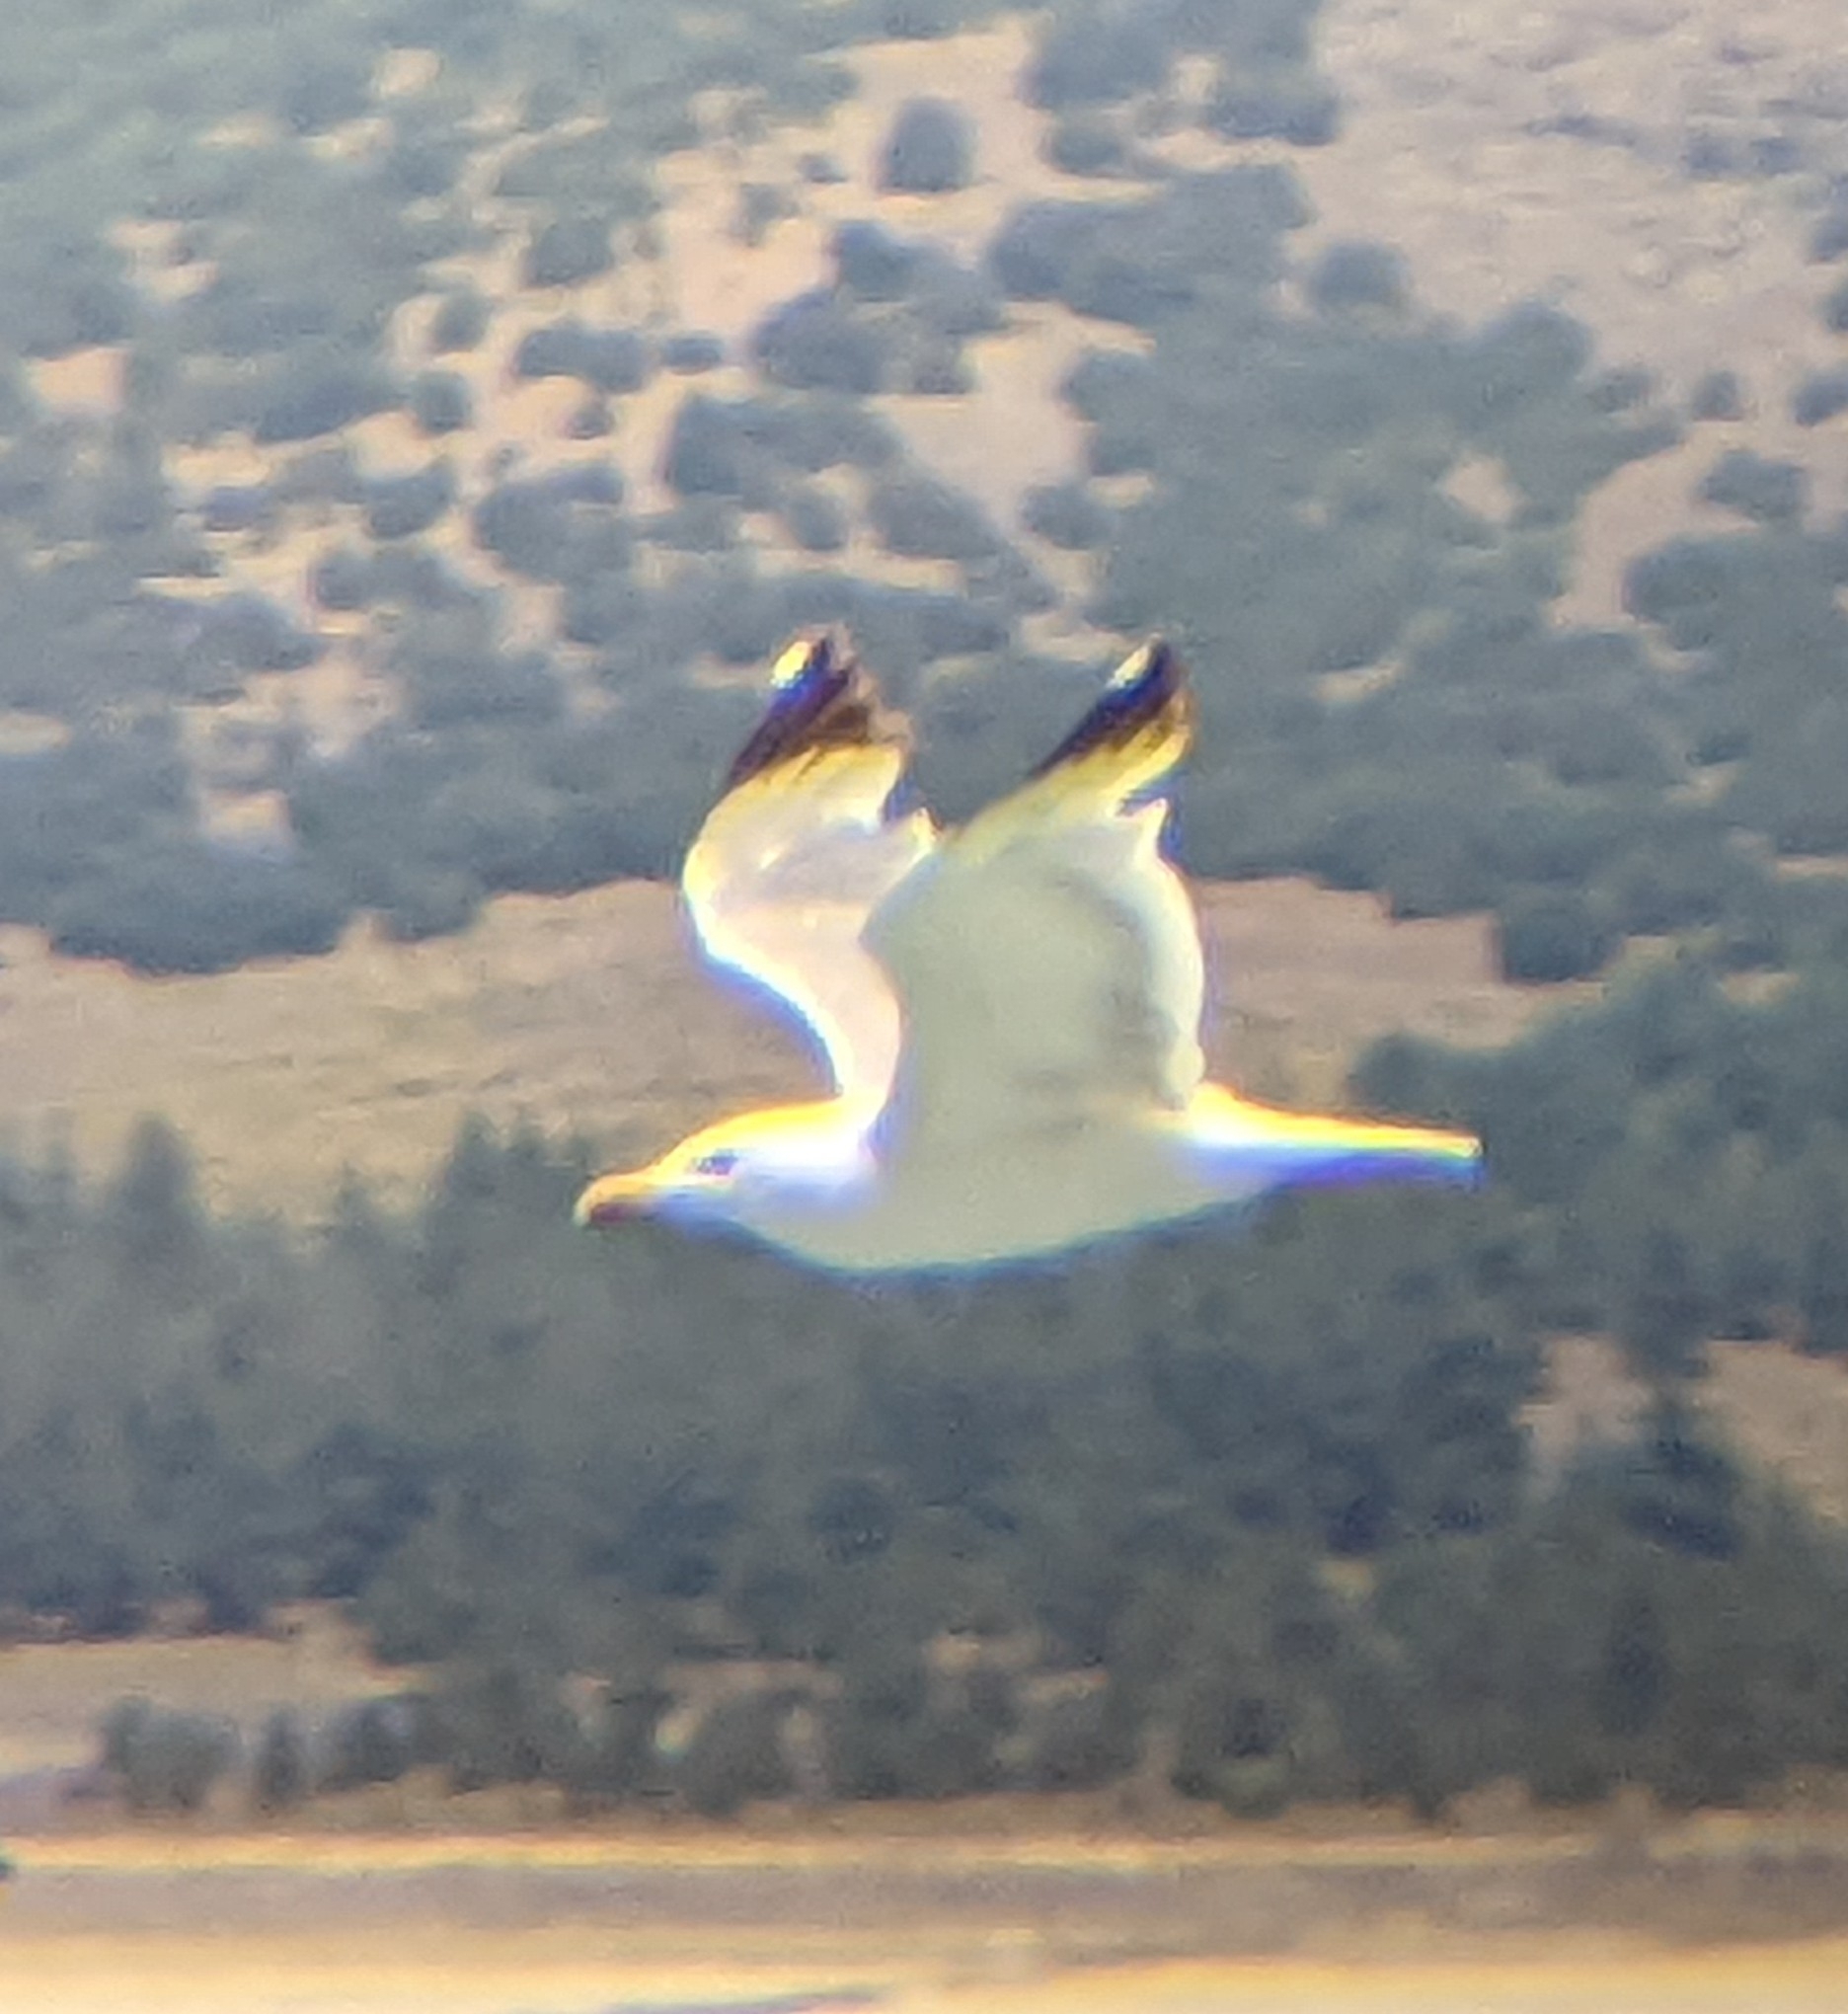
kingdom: Animalia
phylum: Chordata
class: Aves
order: Charadriiformes
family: Laridae
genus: Larus
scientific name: Larus michahellis
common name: Yellow-legged gull
